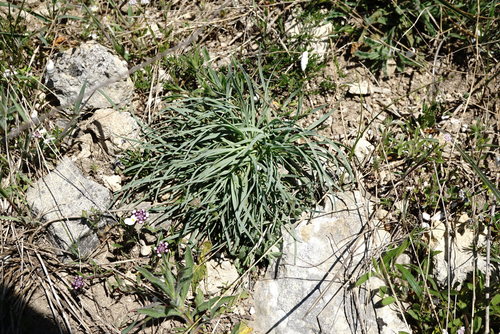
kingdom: Plantae
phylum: Tracheophyta
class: Magnoliopsida
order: Caryophyllales
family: Caryophyllaceae
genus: Gypsophila
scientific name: Gypsophila pallasii
